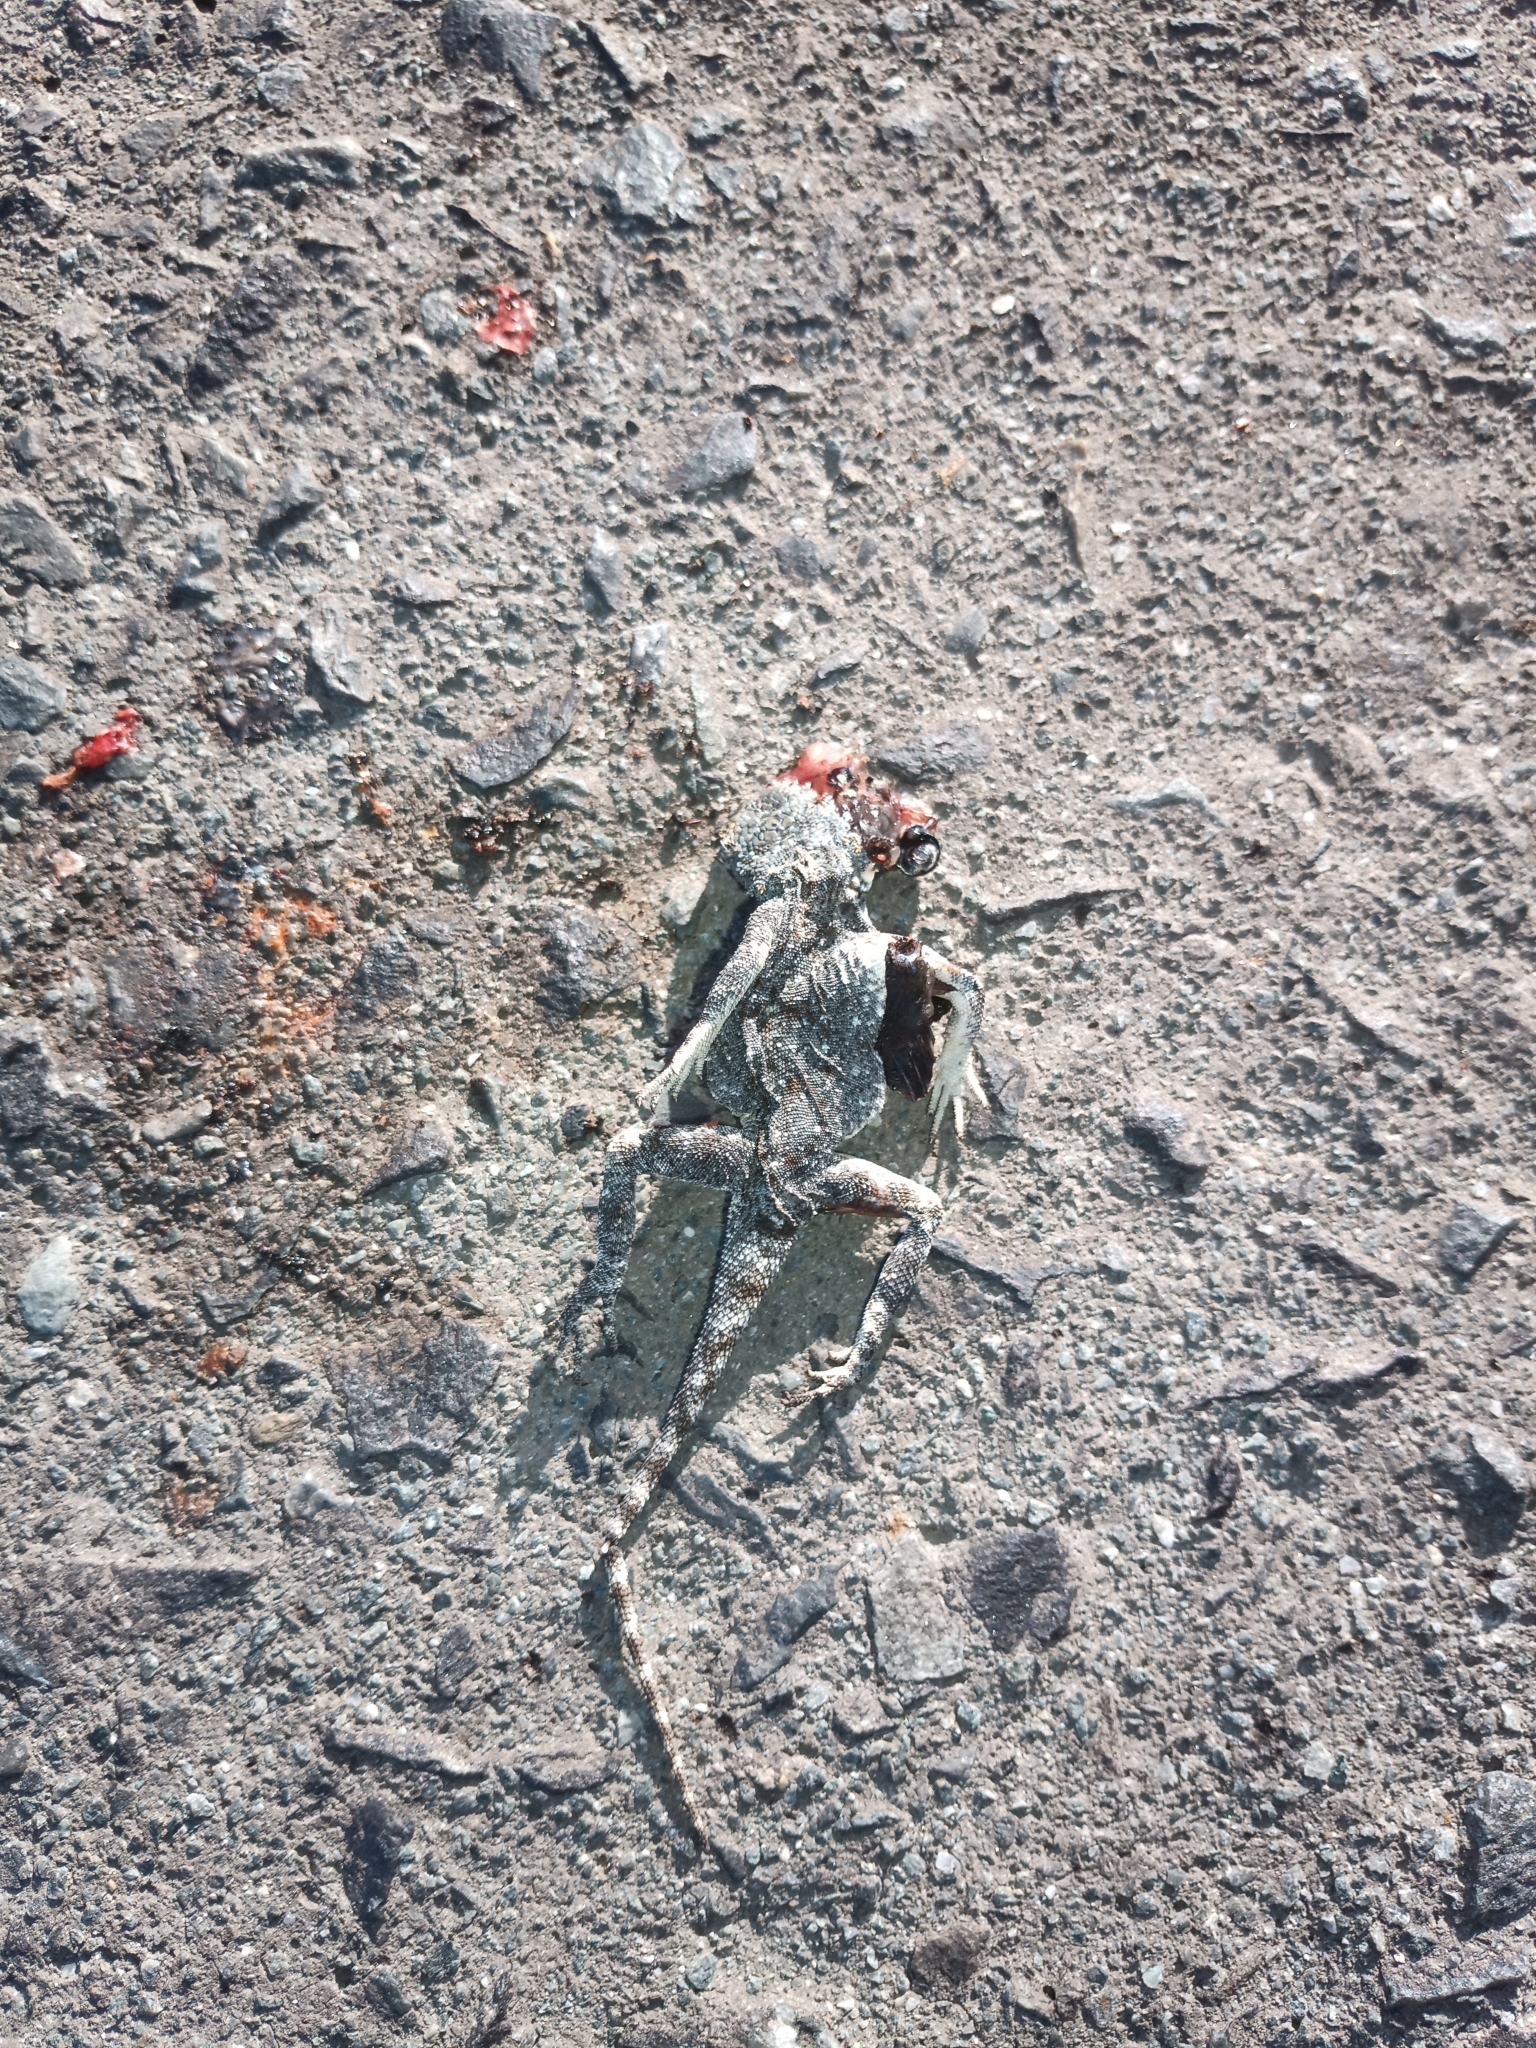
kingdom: Animalia
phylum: Chordata
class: Squamata
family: Agamidae
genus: Agama
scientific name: Agama atra
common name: Southern african rock agama
